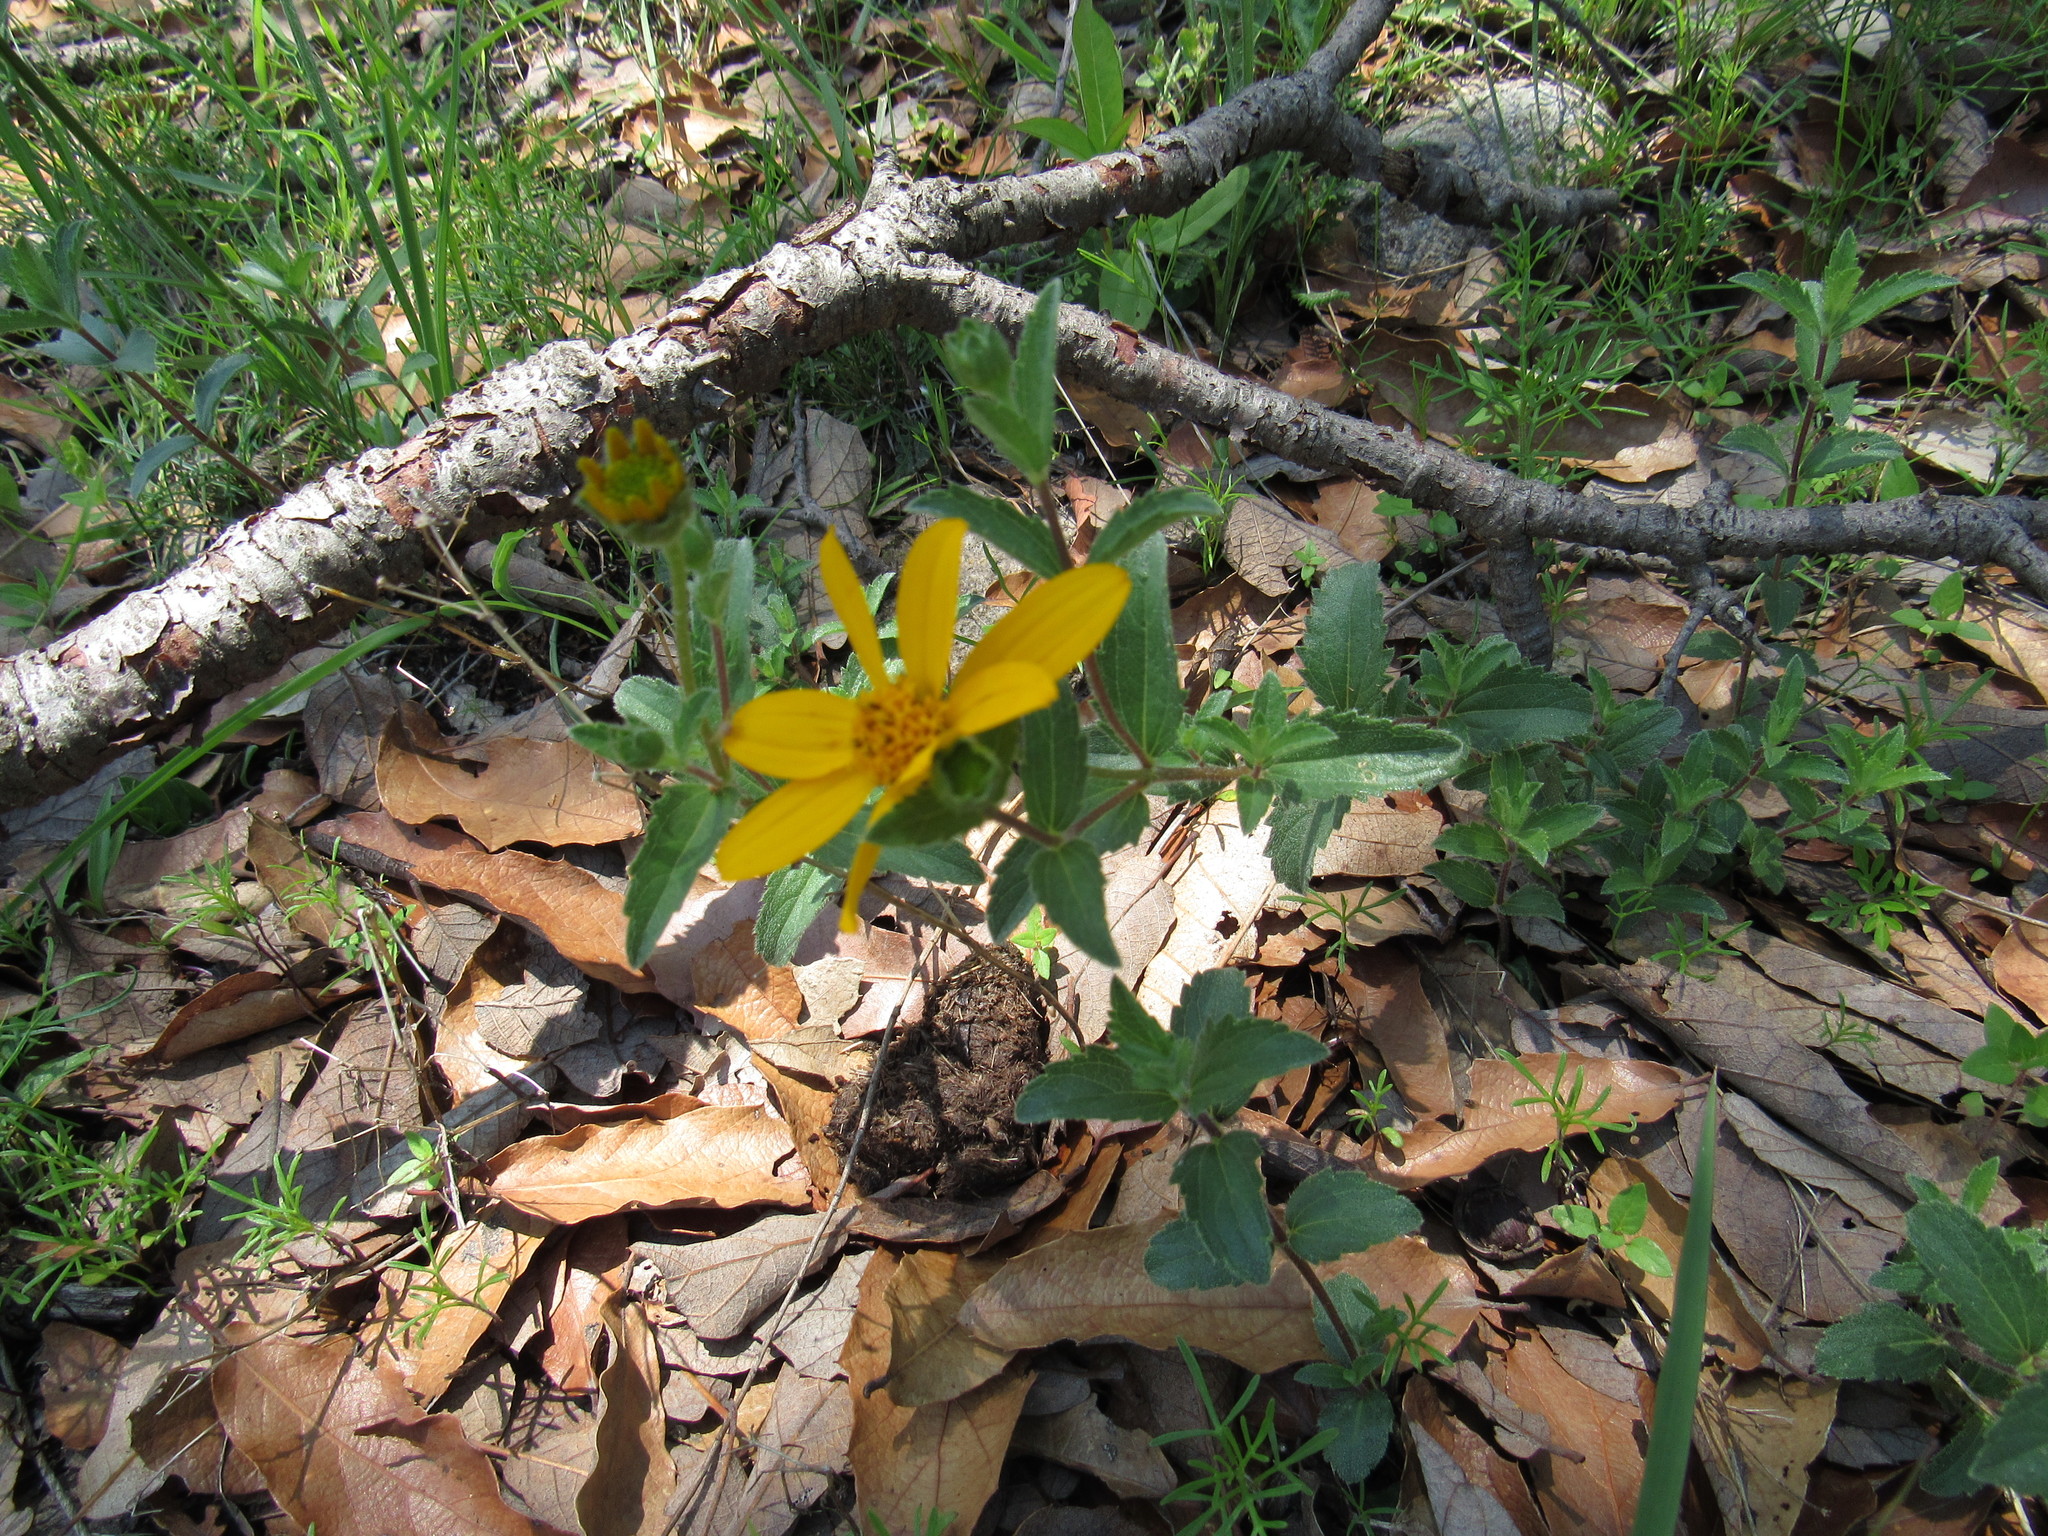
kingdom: Plantae
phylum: Tracheophyta
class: Magnoliopsida
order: Asterales
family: Asteraceae
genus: Lasianthaea
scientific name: Lasianthaea aurea
